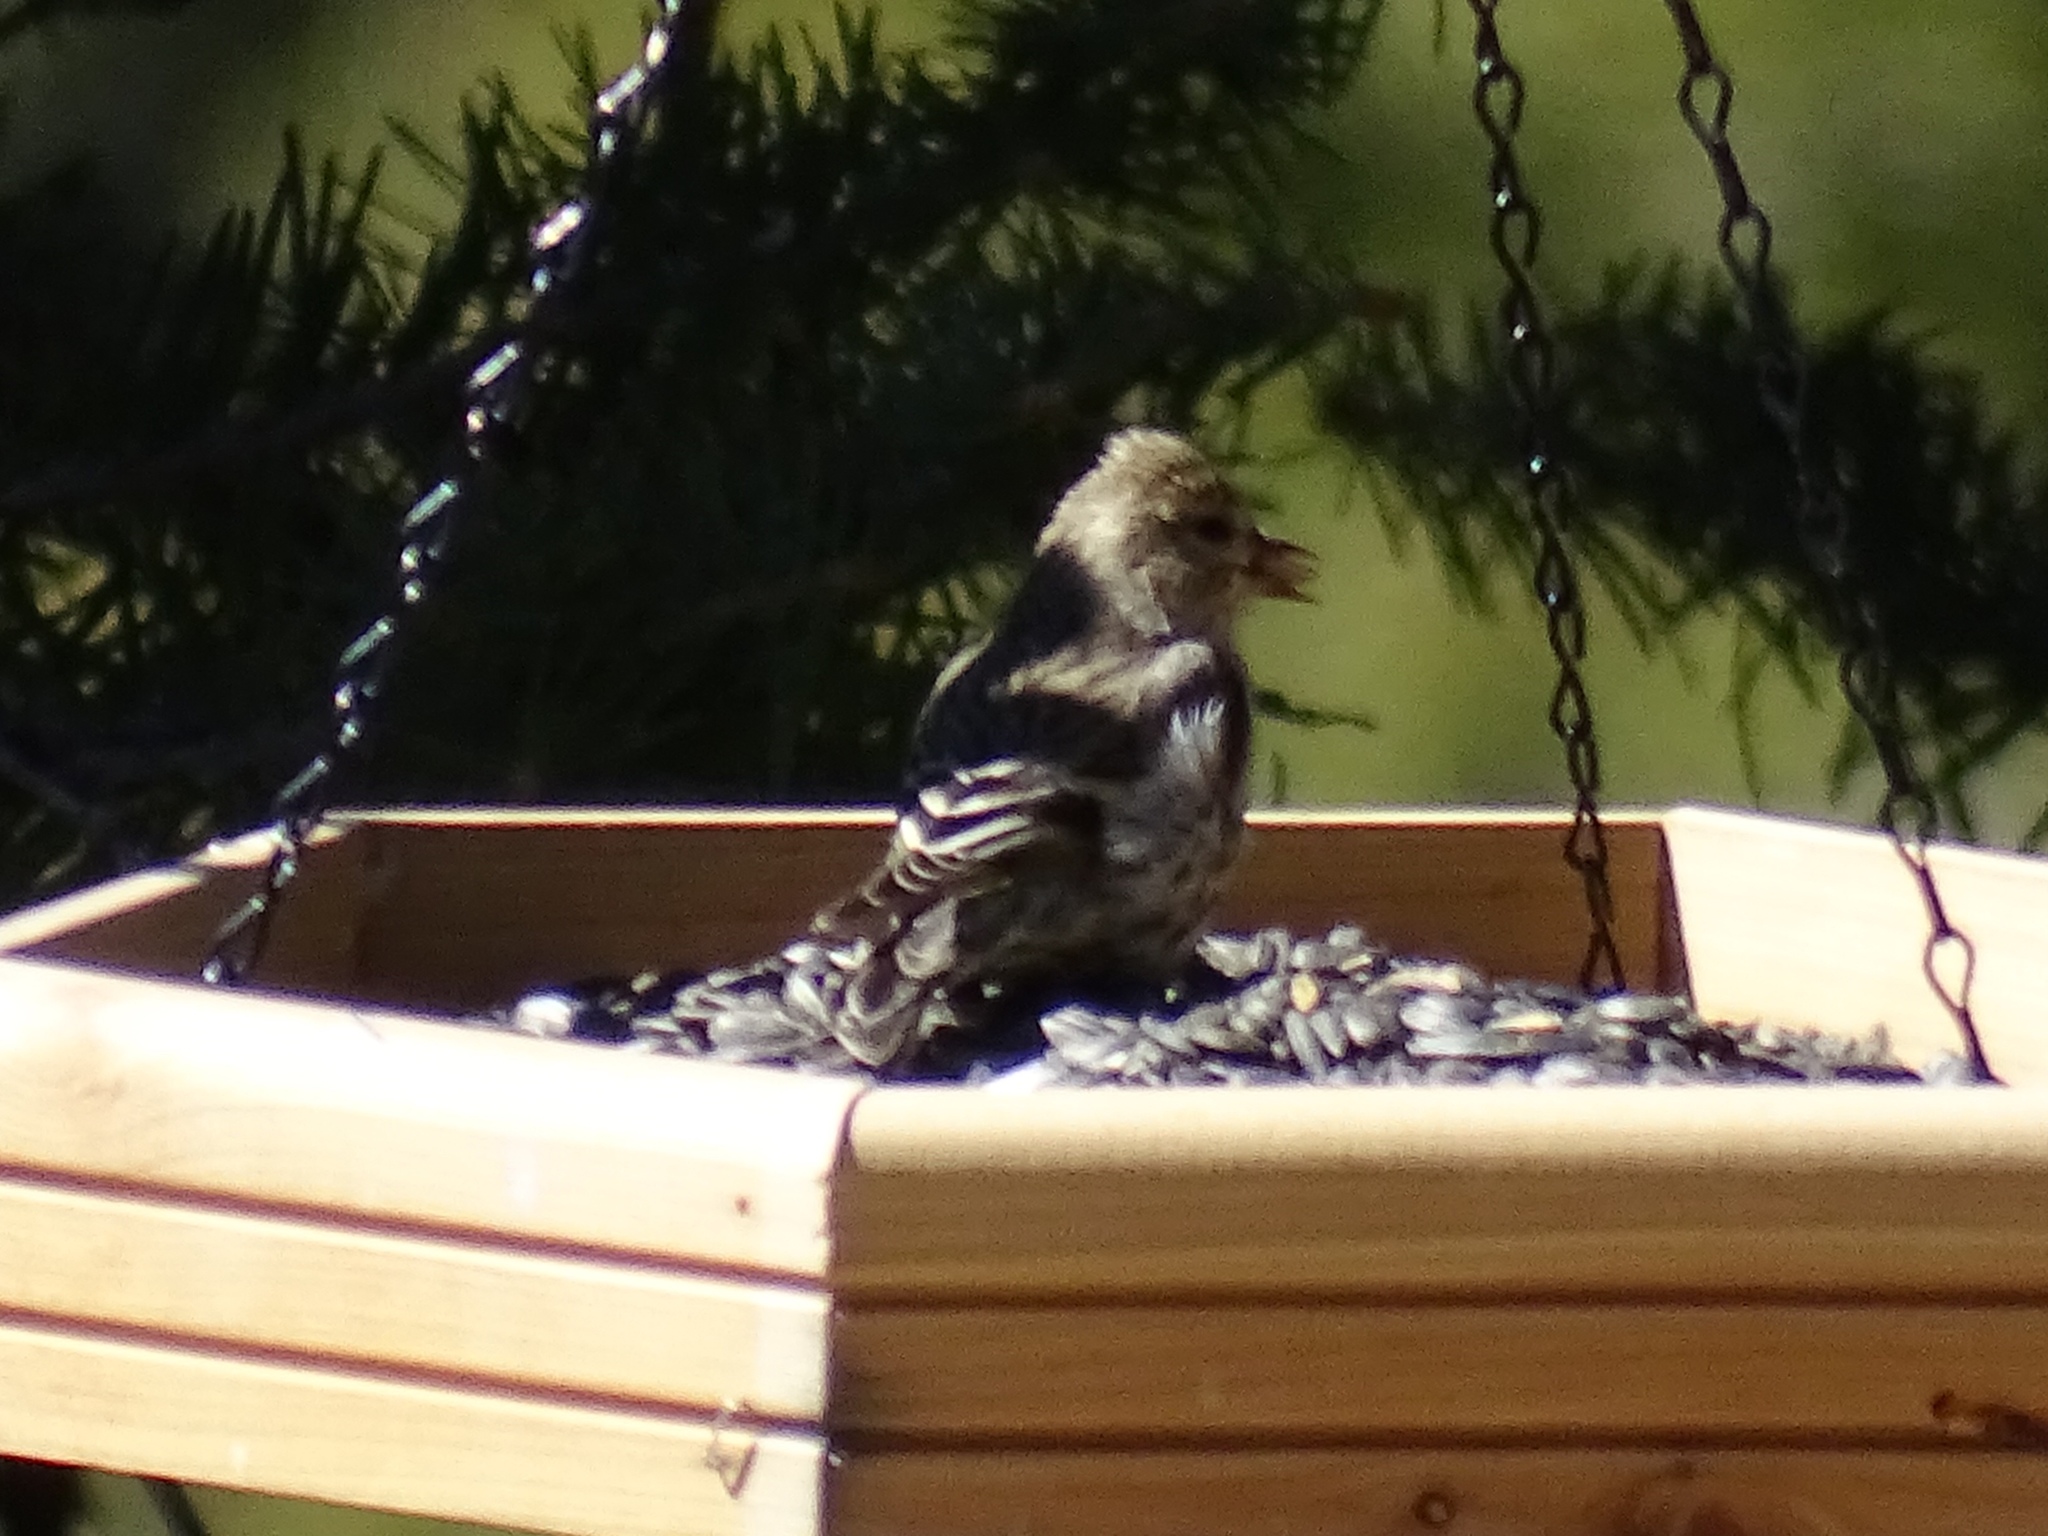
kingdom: Animalia
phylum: Chordata
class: Aves
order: Passeriformes
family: Fringillidae
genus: Spinus
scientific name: Spinus pinus
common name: Pine siskin
